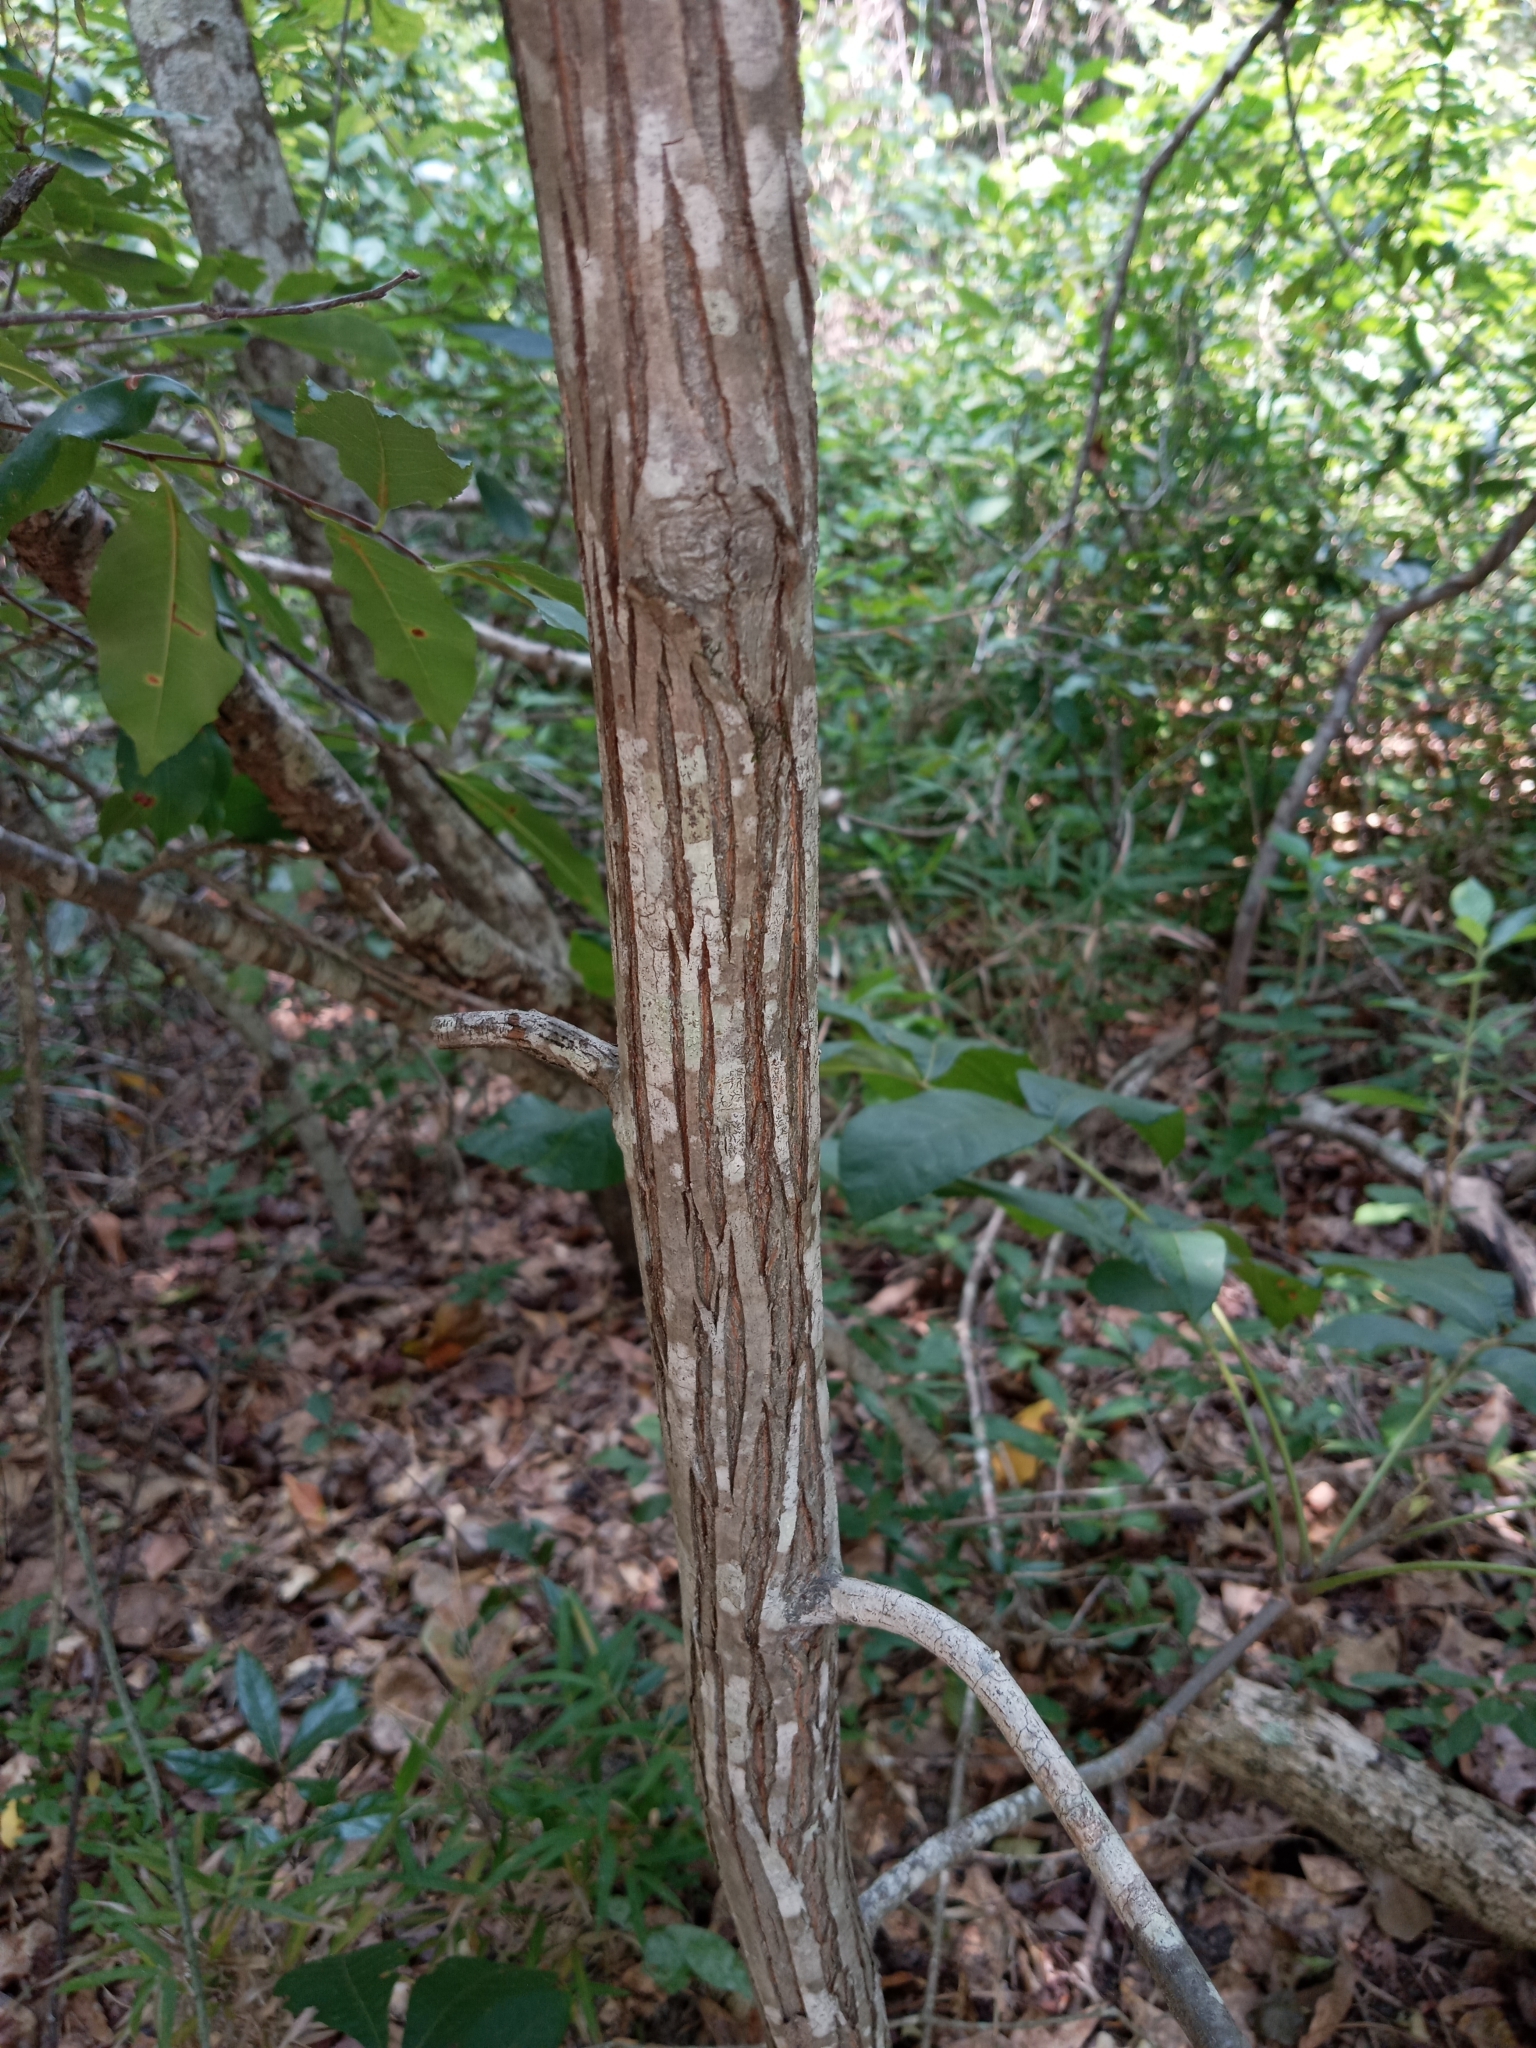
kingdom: Plantae
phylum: Tracheophyta
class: Magnoliopsida
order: Fagales
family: Juglandaceae
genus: Carya
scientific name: Carya alba
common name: Mockernut hickory
